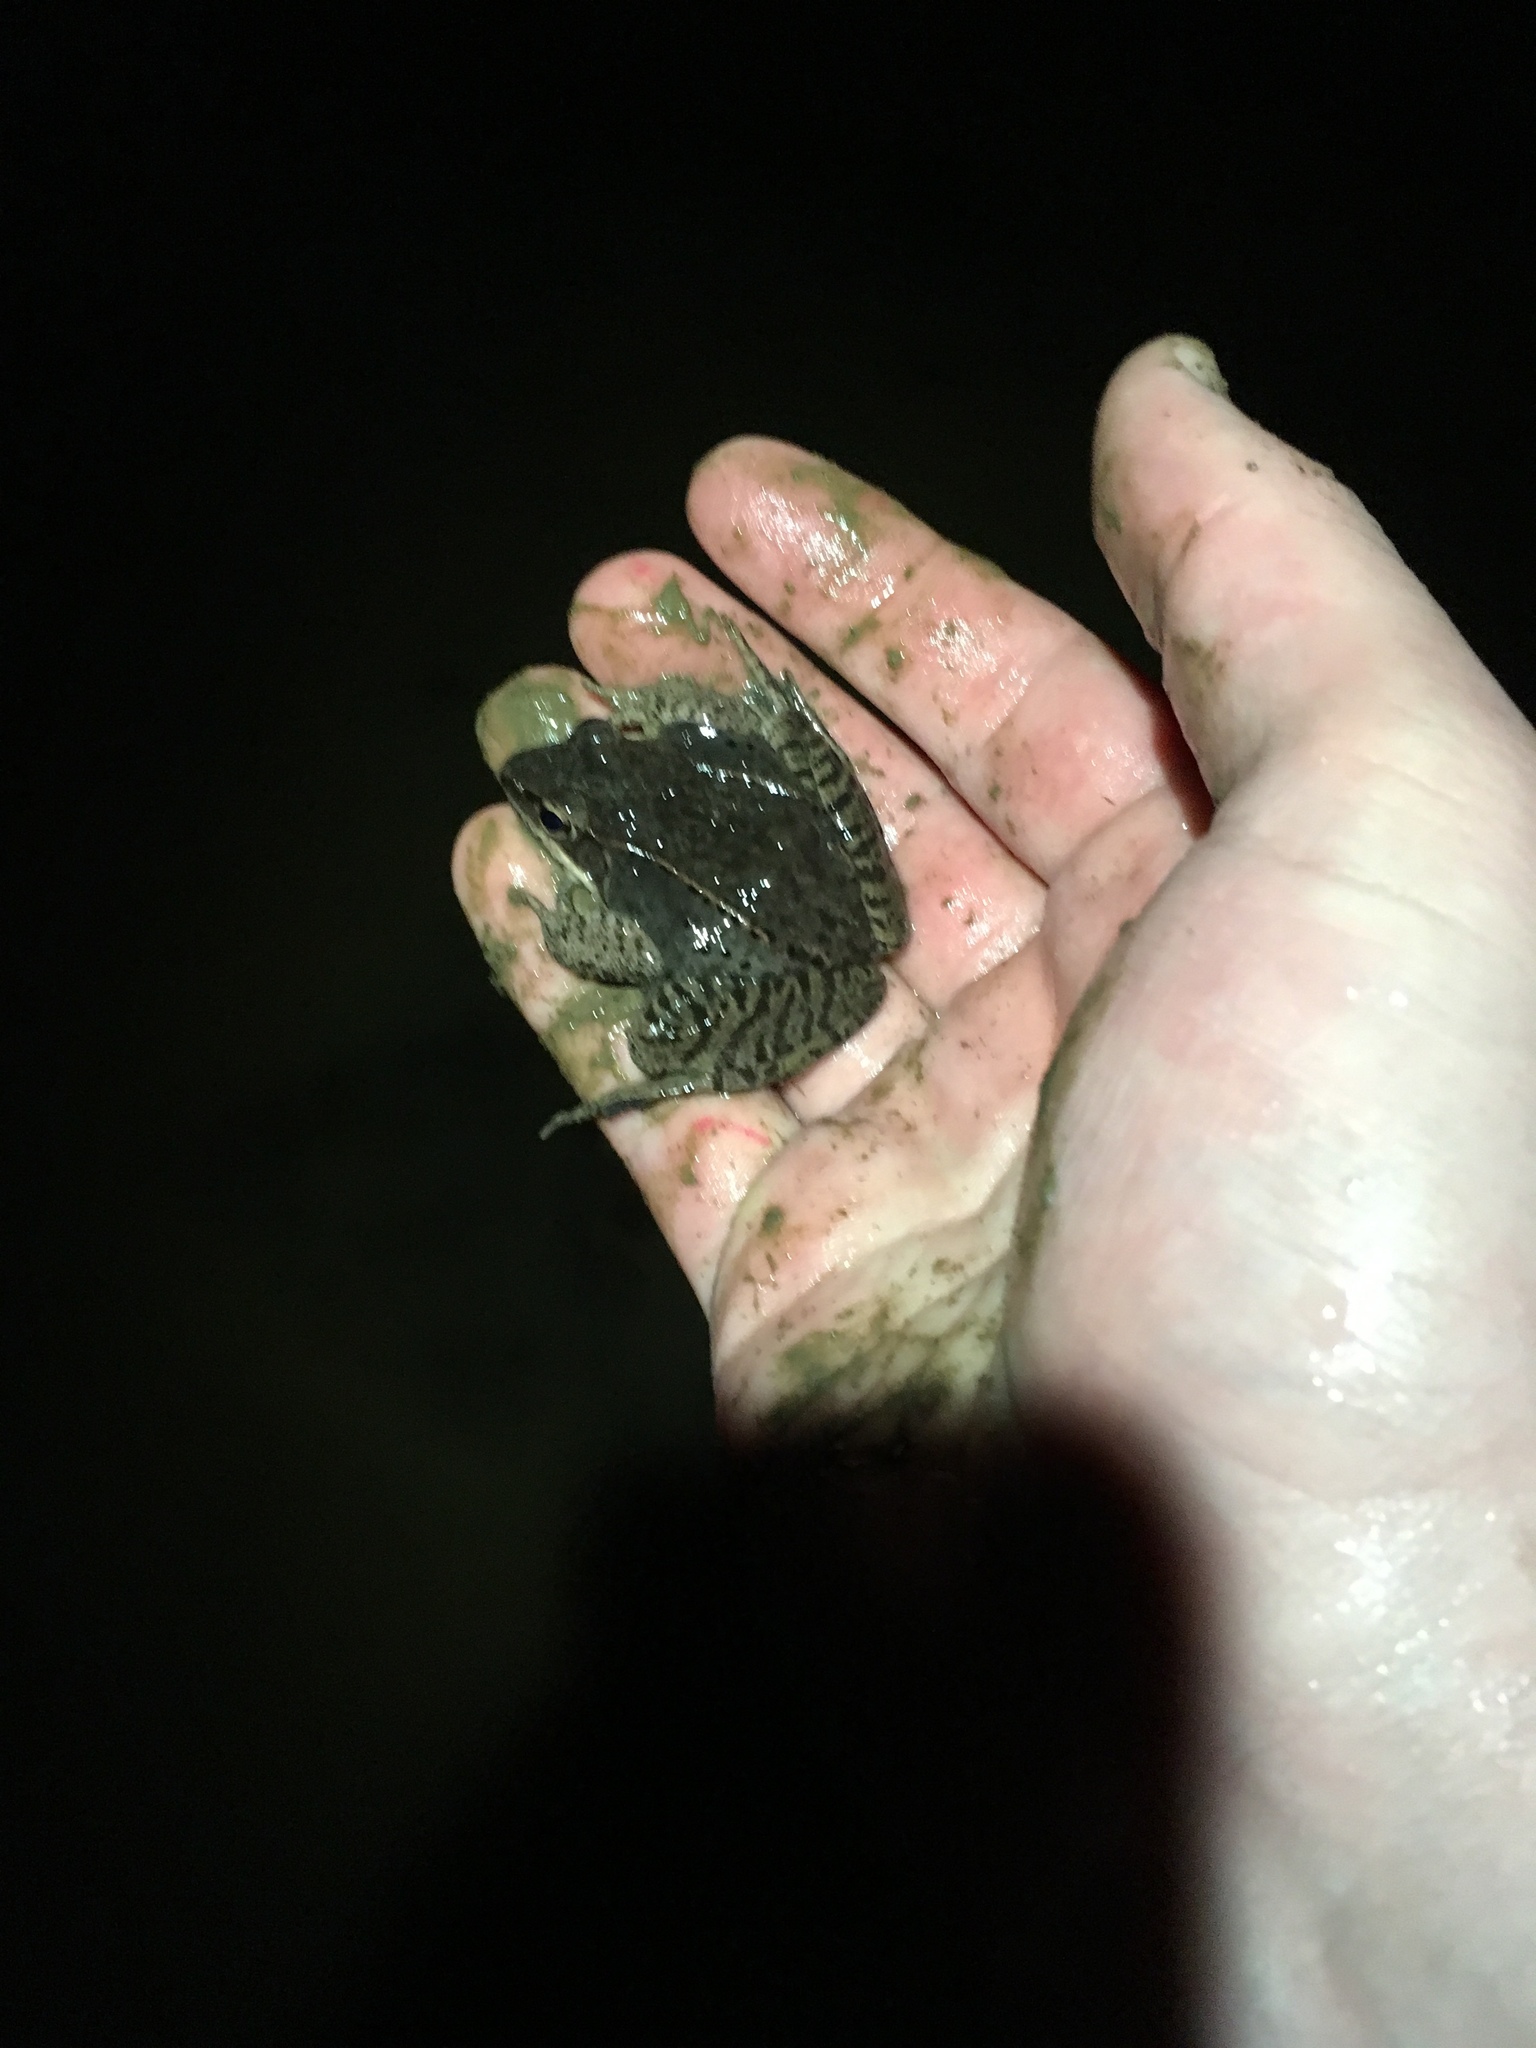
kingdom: Animalia
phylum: Chordata
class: Amphibia
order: Anura
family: Ranidae
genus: Lithobates
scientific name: Lithobates sylvaticus
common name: Wood frog
